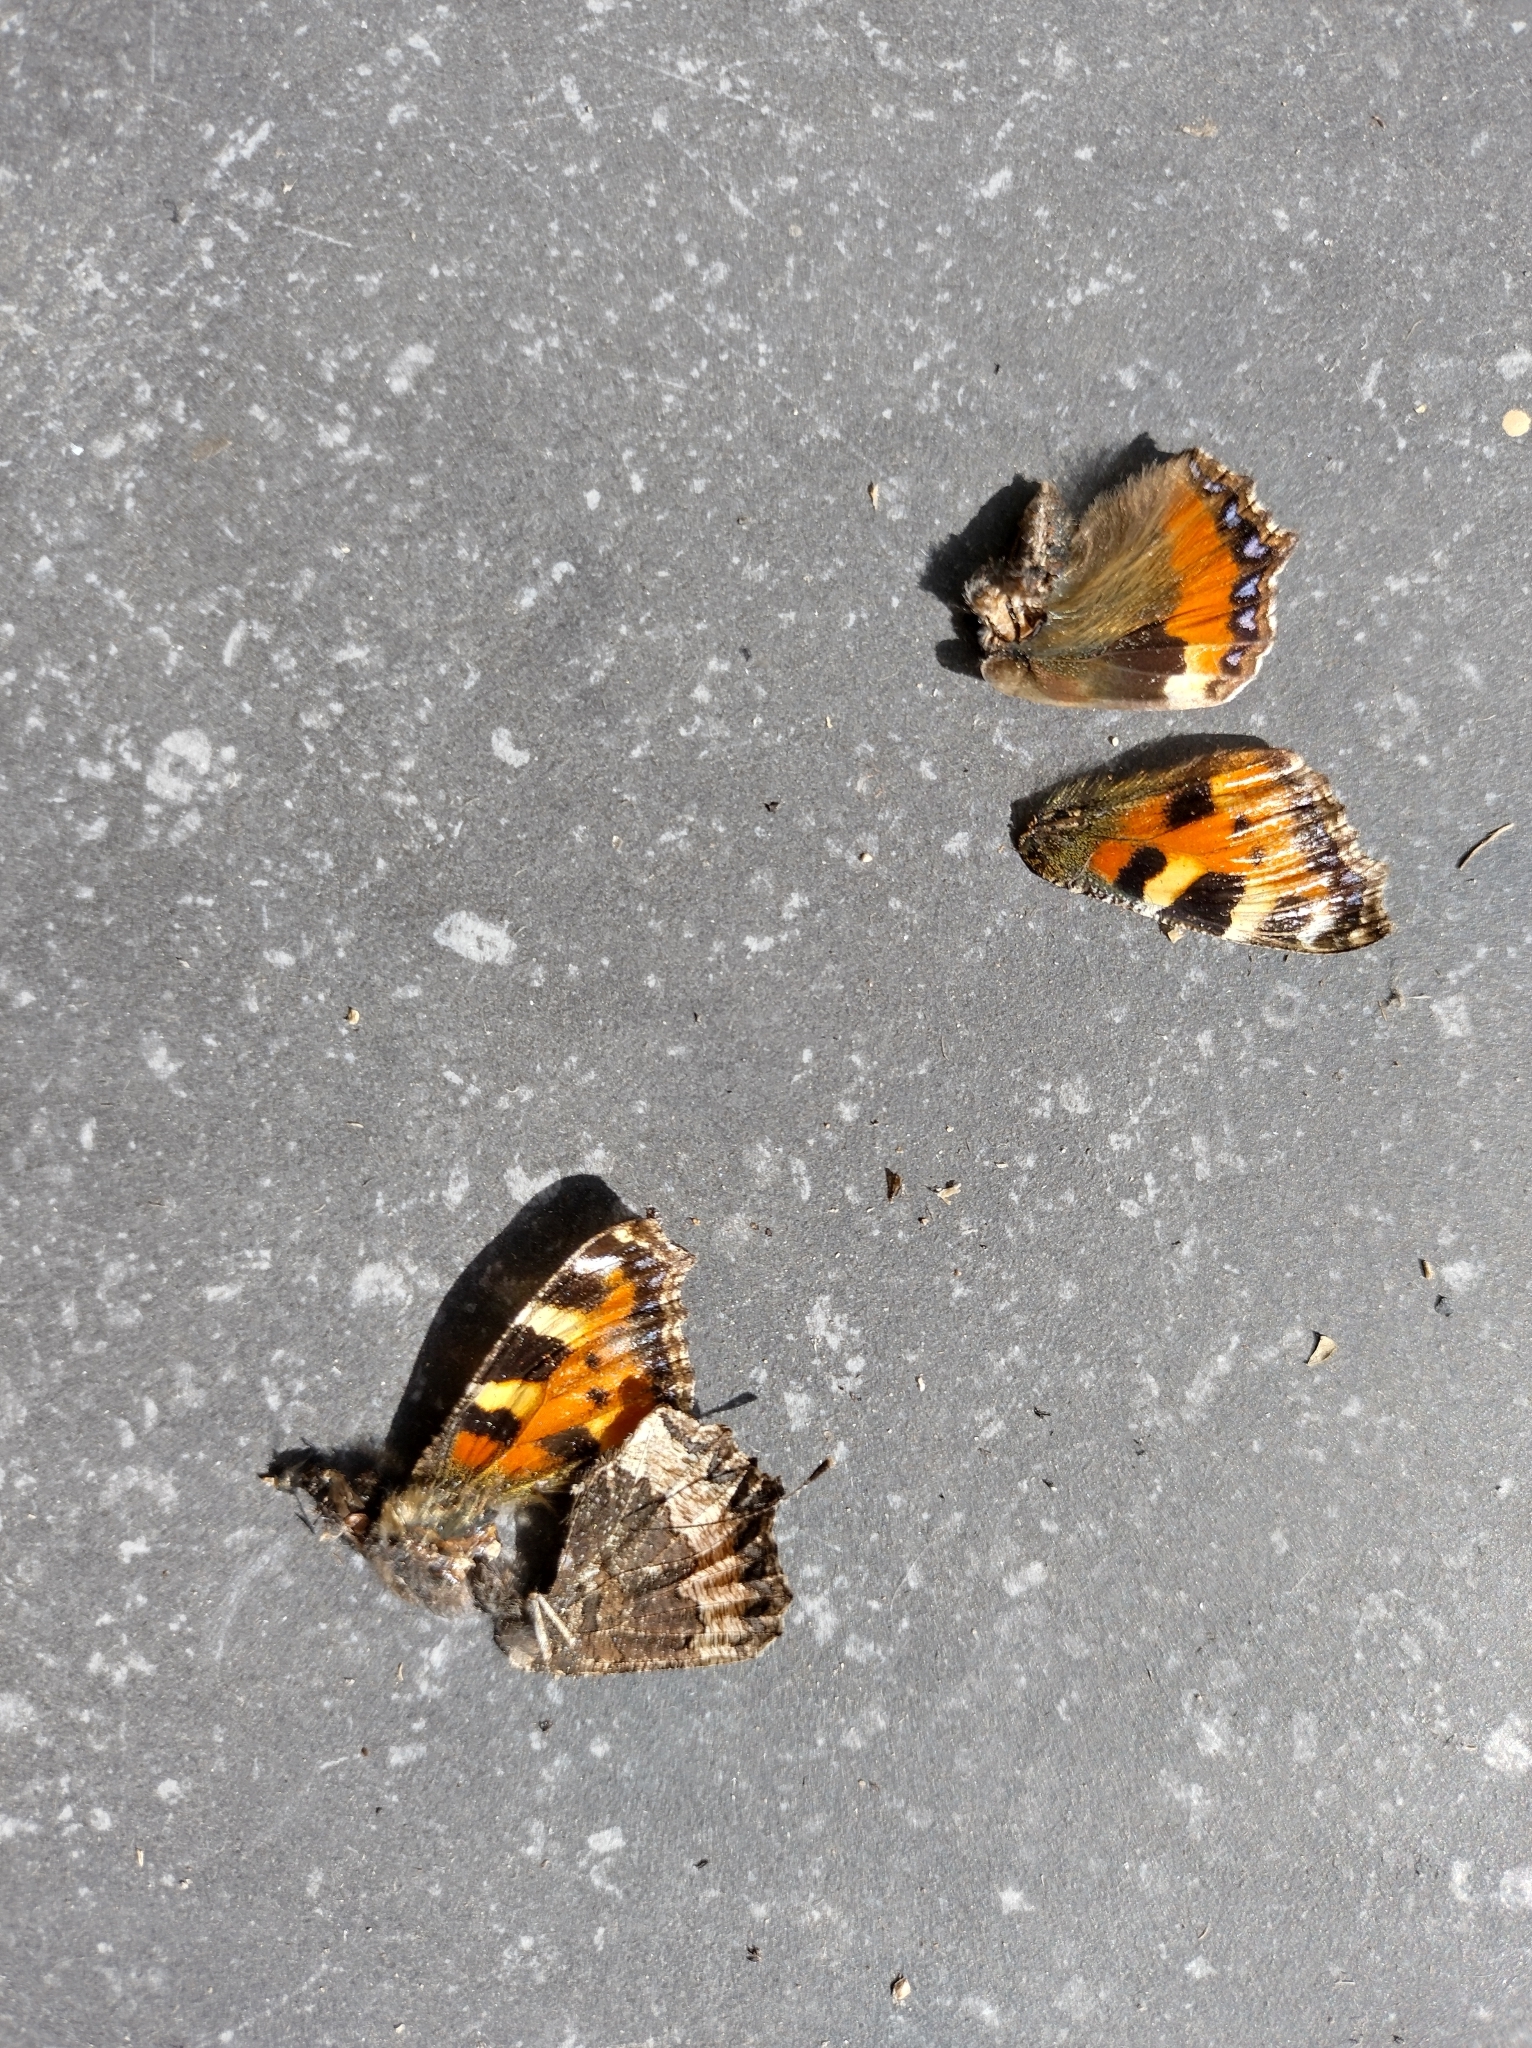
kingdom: Animalia
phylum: Arthropoda
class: Insecta
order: Lepidoptera
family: Nymphalidae
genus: Aglais
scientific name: Aglais urticae
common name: Small tortoiseshell
